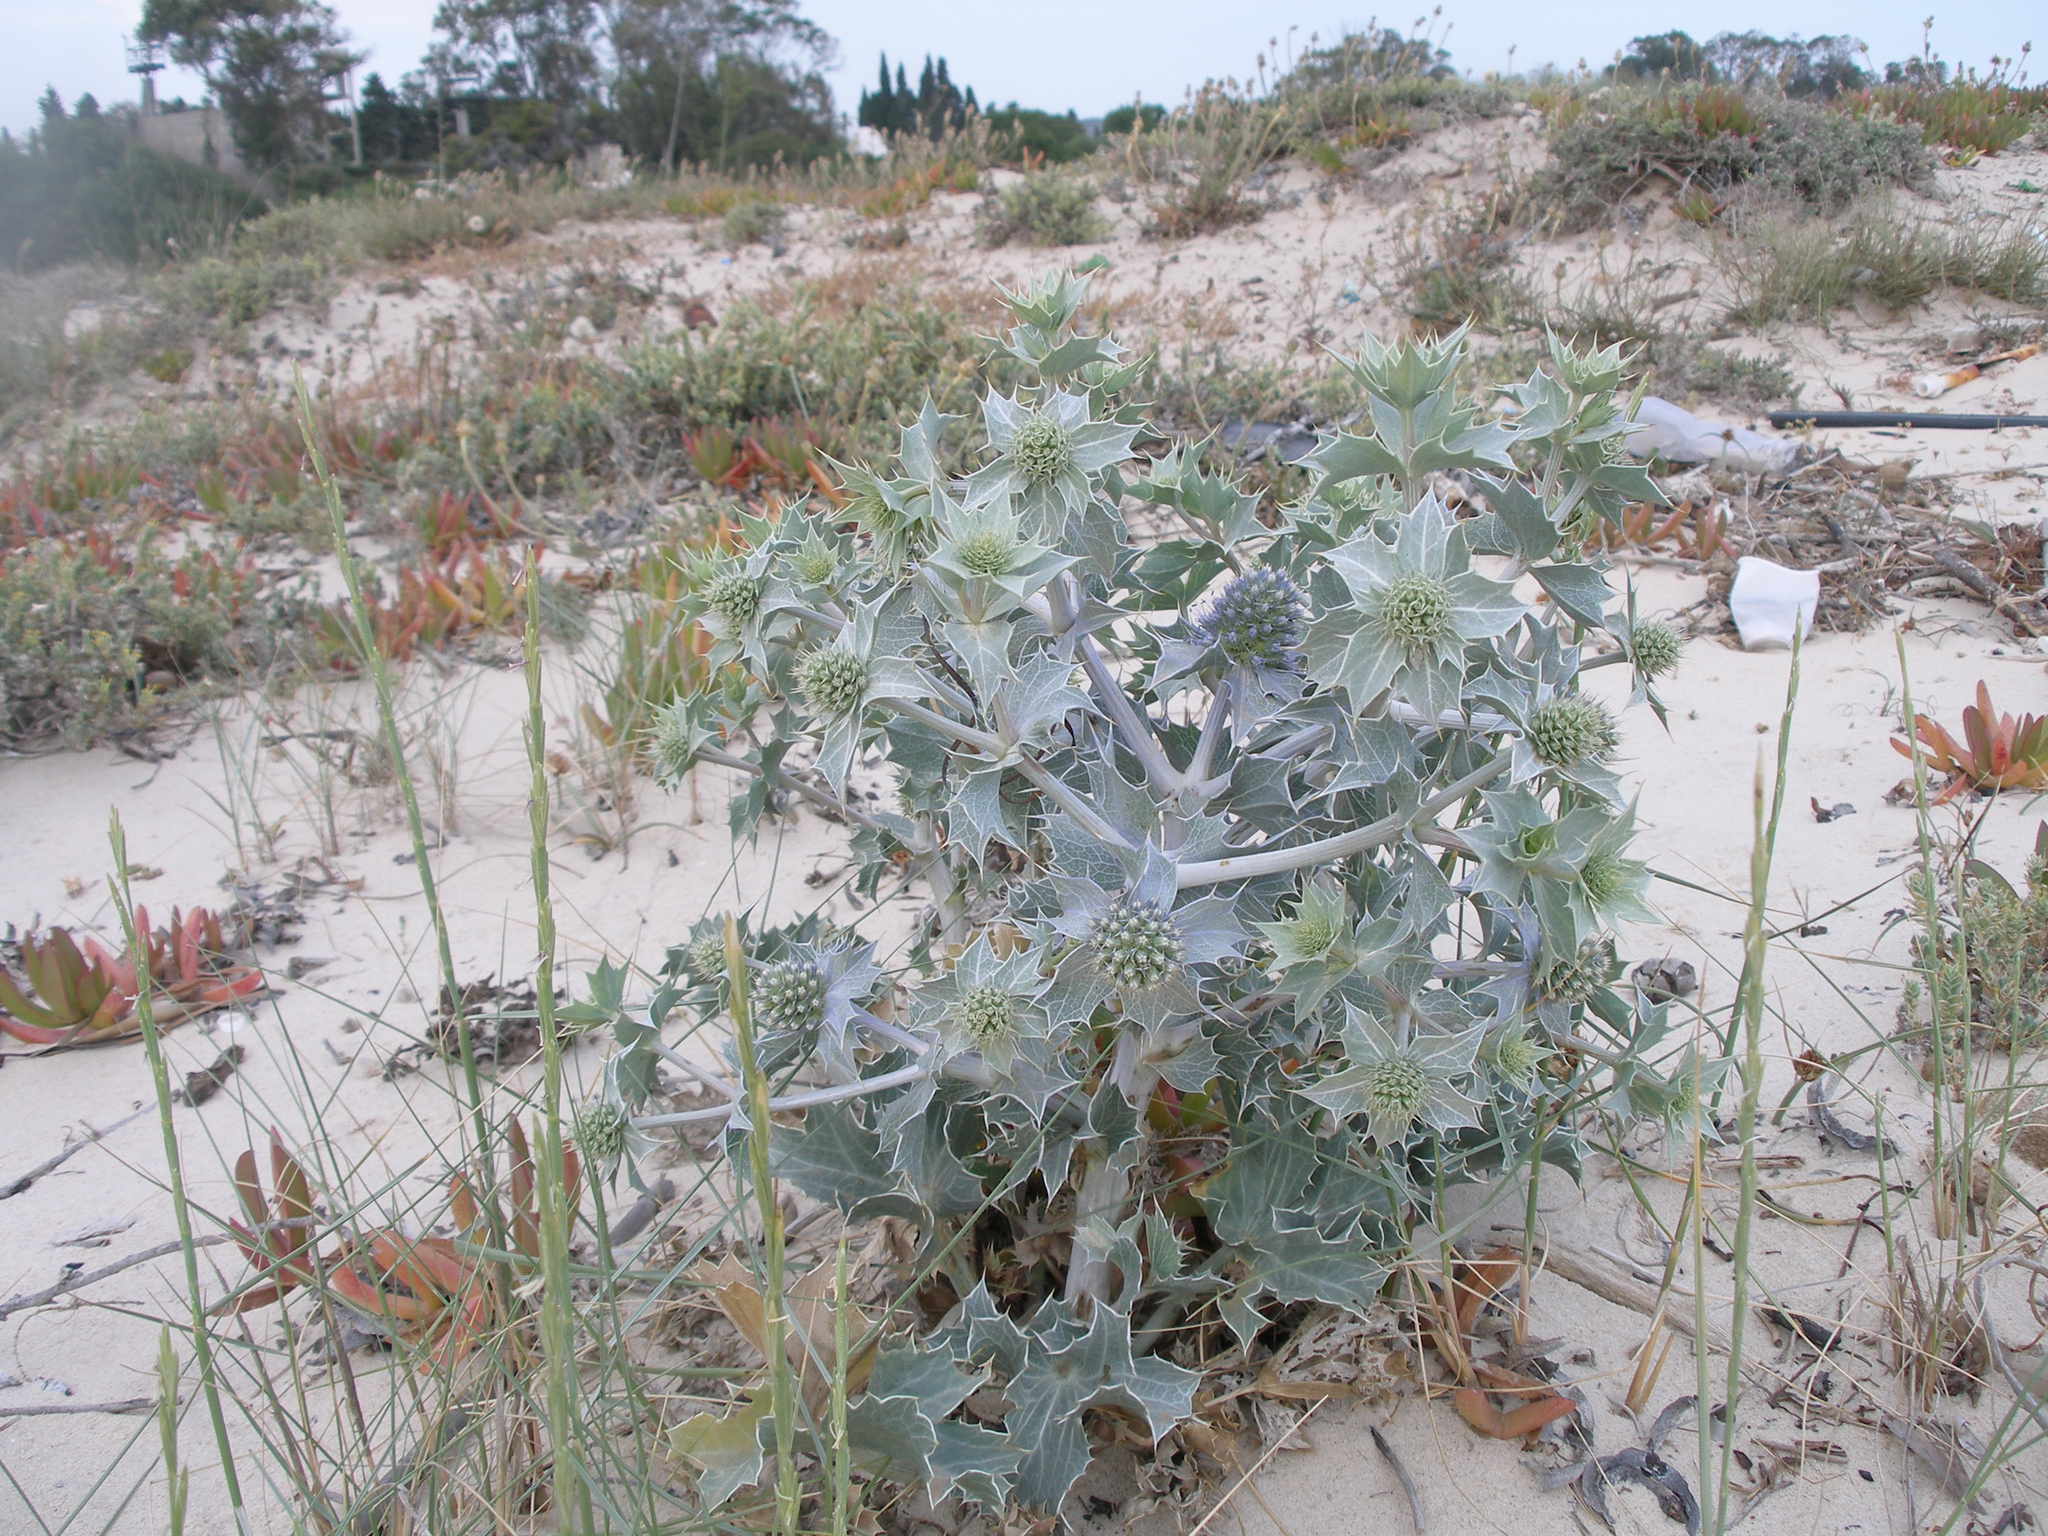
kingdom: Plantae
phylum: Tracheophyta
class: Magnoliopsida
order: Apiales
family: Apiaceae
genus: Eryngium
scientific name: Eryngium maritimum
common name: Sea-holly
